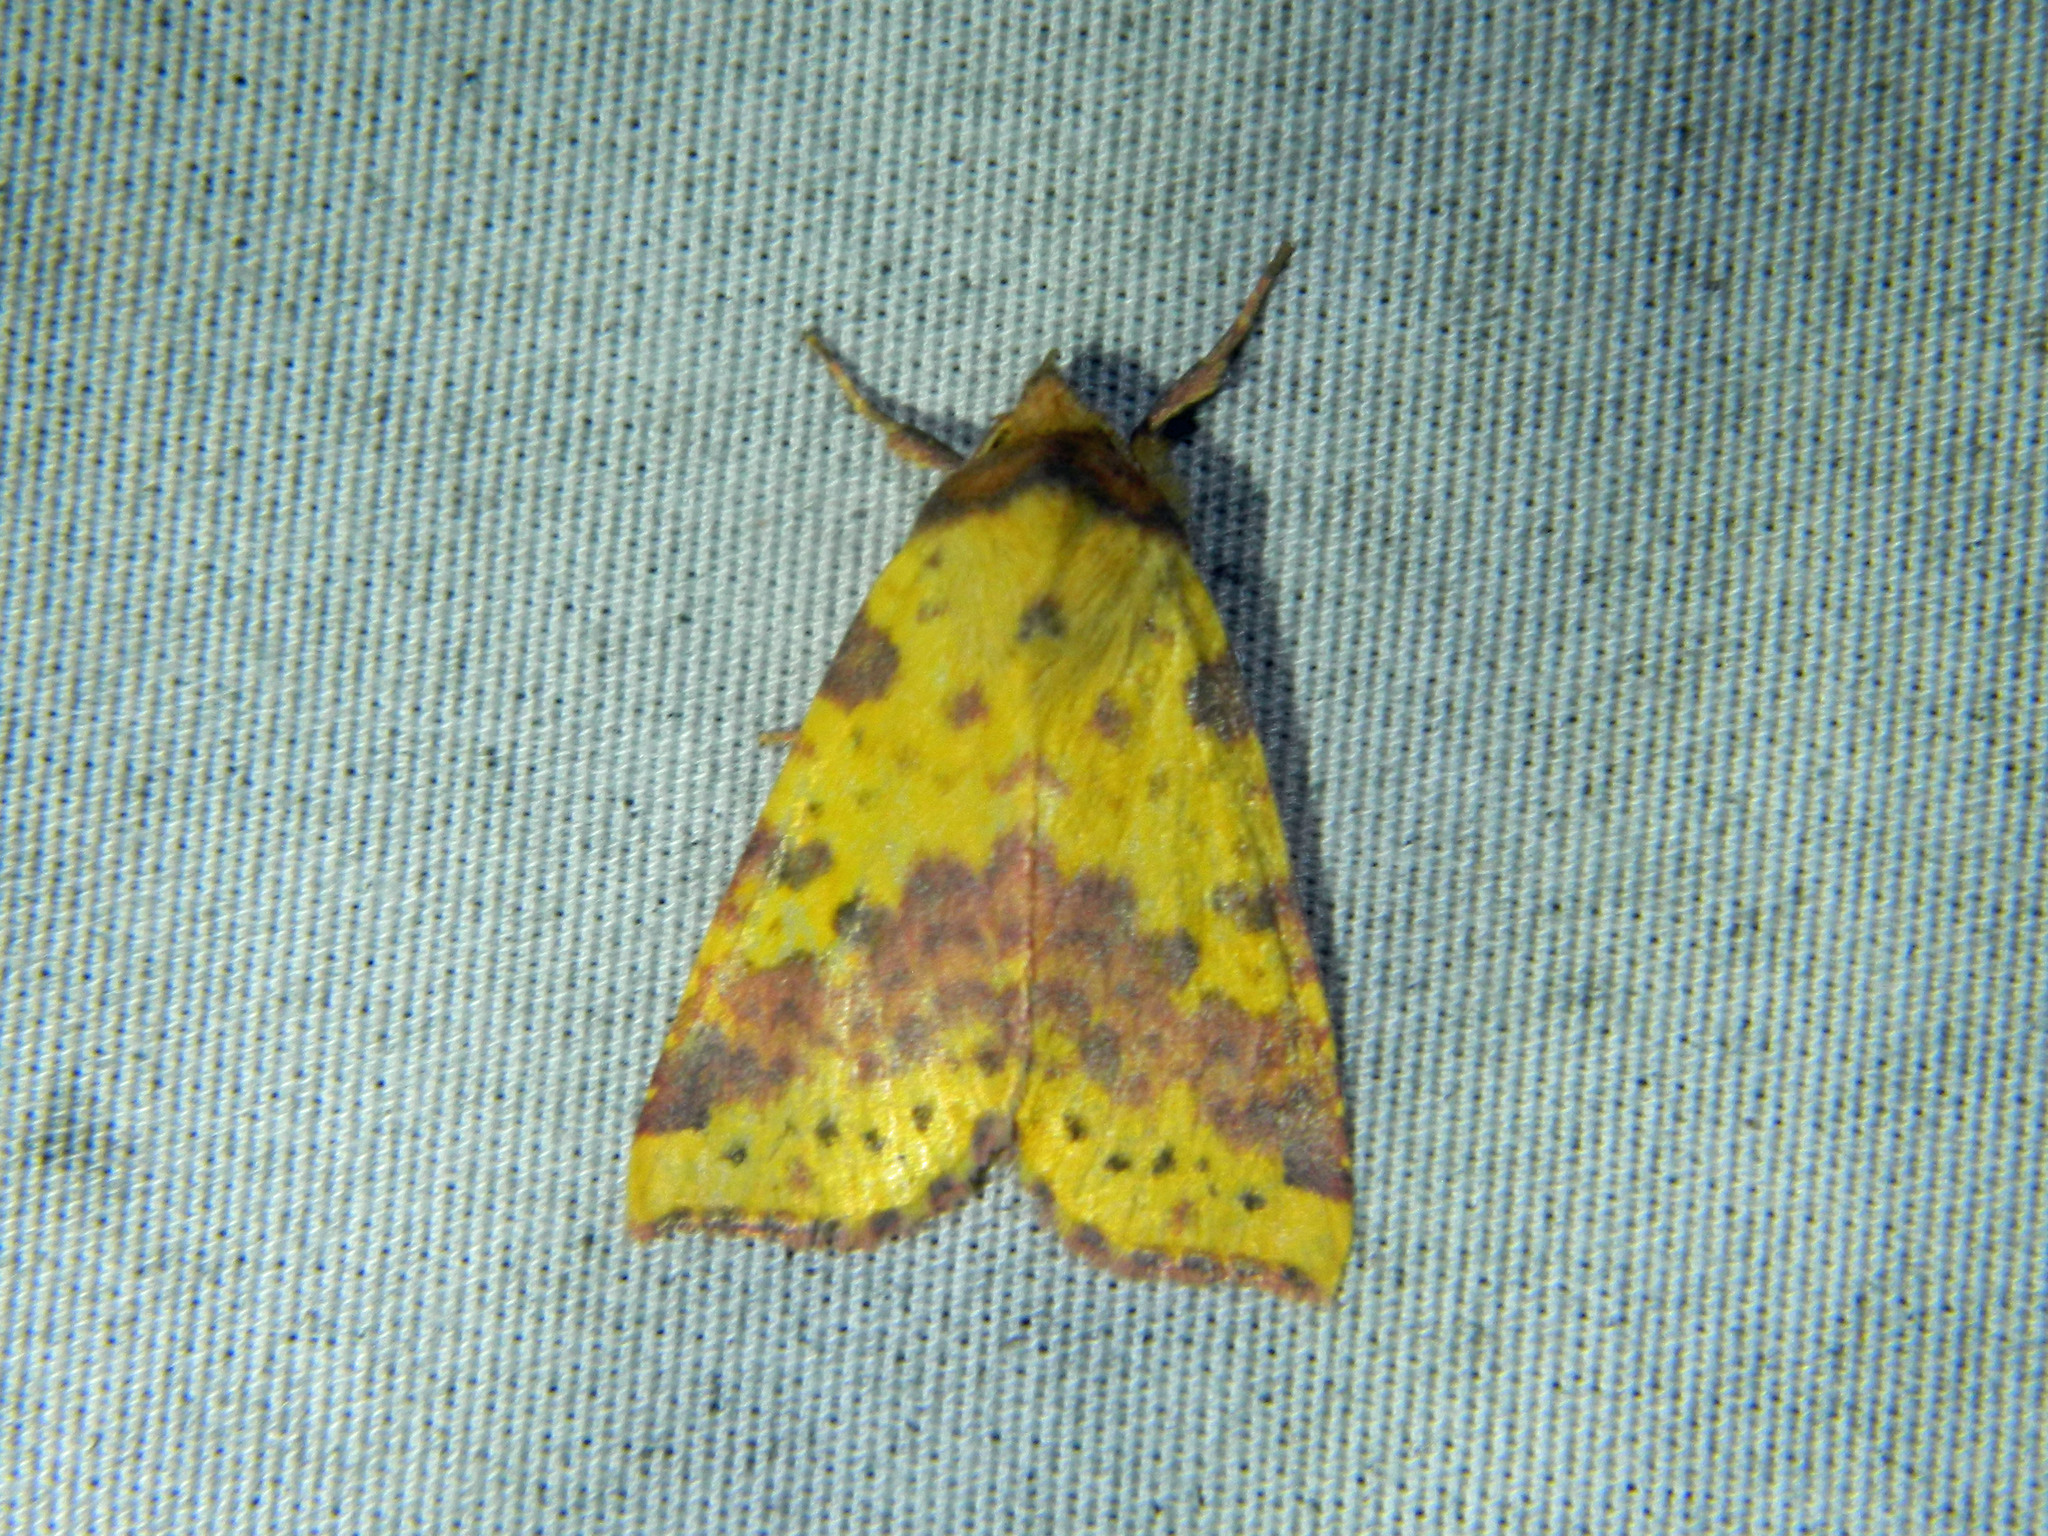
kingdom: Animalia
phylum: Arthropoda
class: Insecta
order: Lepidoptera
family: Noctuidae
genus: Xanthia
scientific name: Xanthia tatago
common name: Pink-banded sallow
